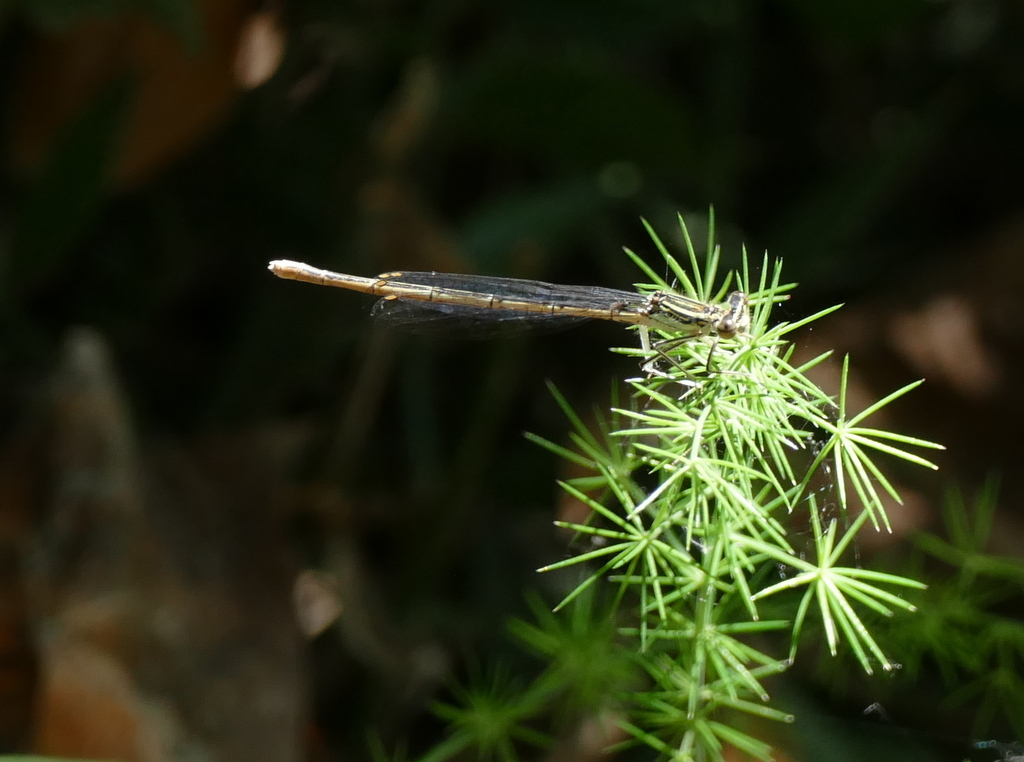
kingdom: Animalia
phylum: Arthropoda
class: Insecta
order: Odonata
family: Platycnemididae
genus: Platycnemis
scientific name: Platycnemis pennipes
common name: White-legged damselfly
